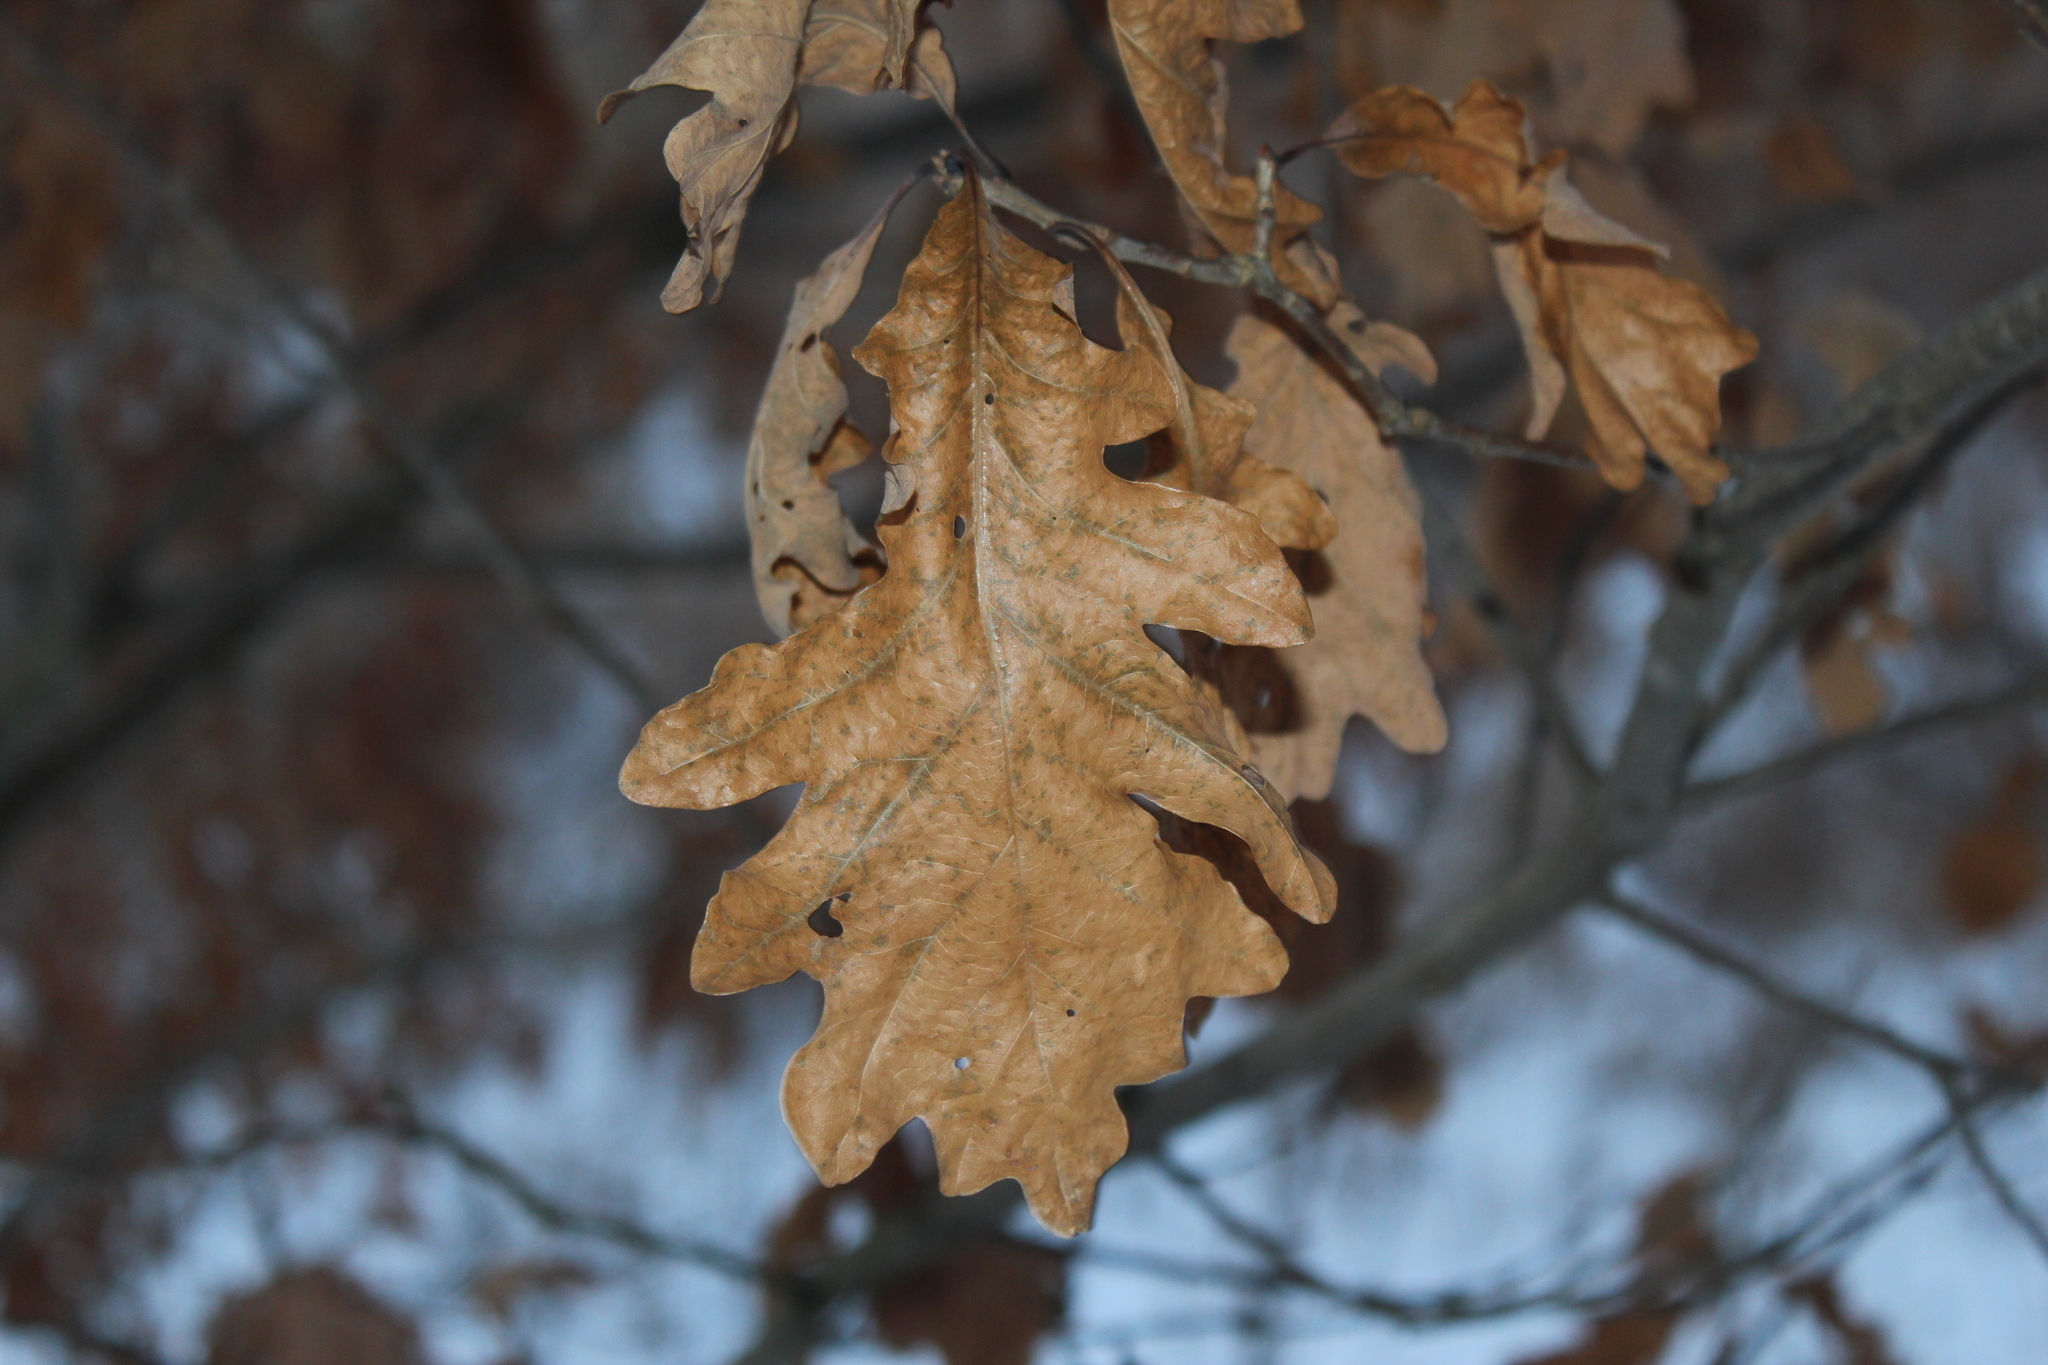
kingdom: Plantae
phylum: Tracheophyta
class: Magnoliopsida
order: Fagales
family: Fagaceae
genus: Quercus
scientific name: Quercus macrocarpa
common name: Bur oak
